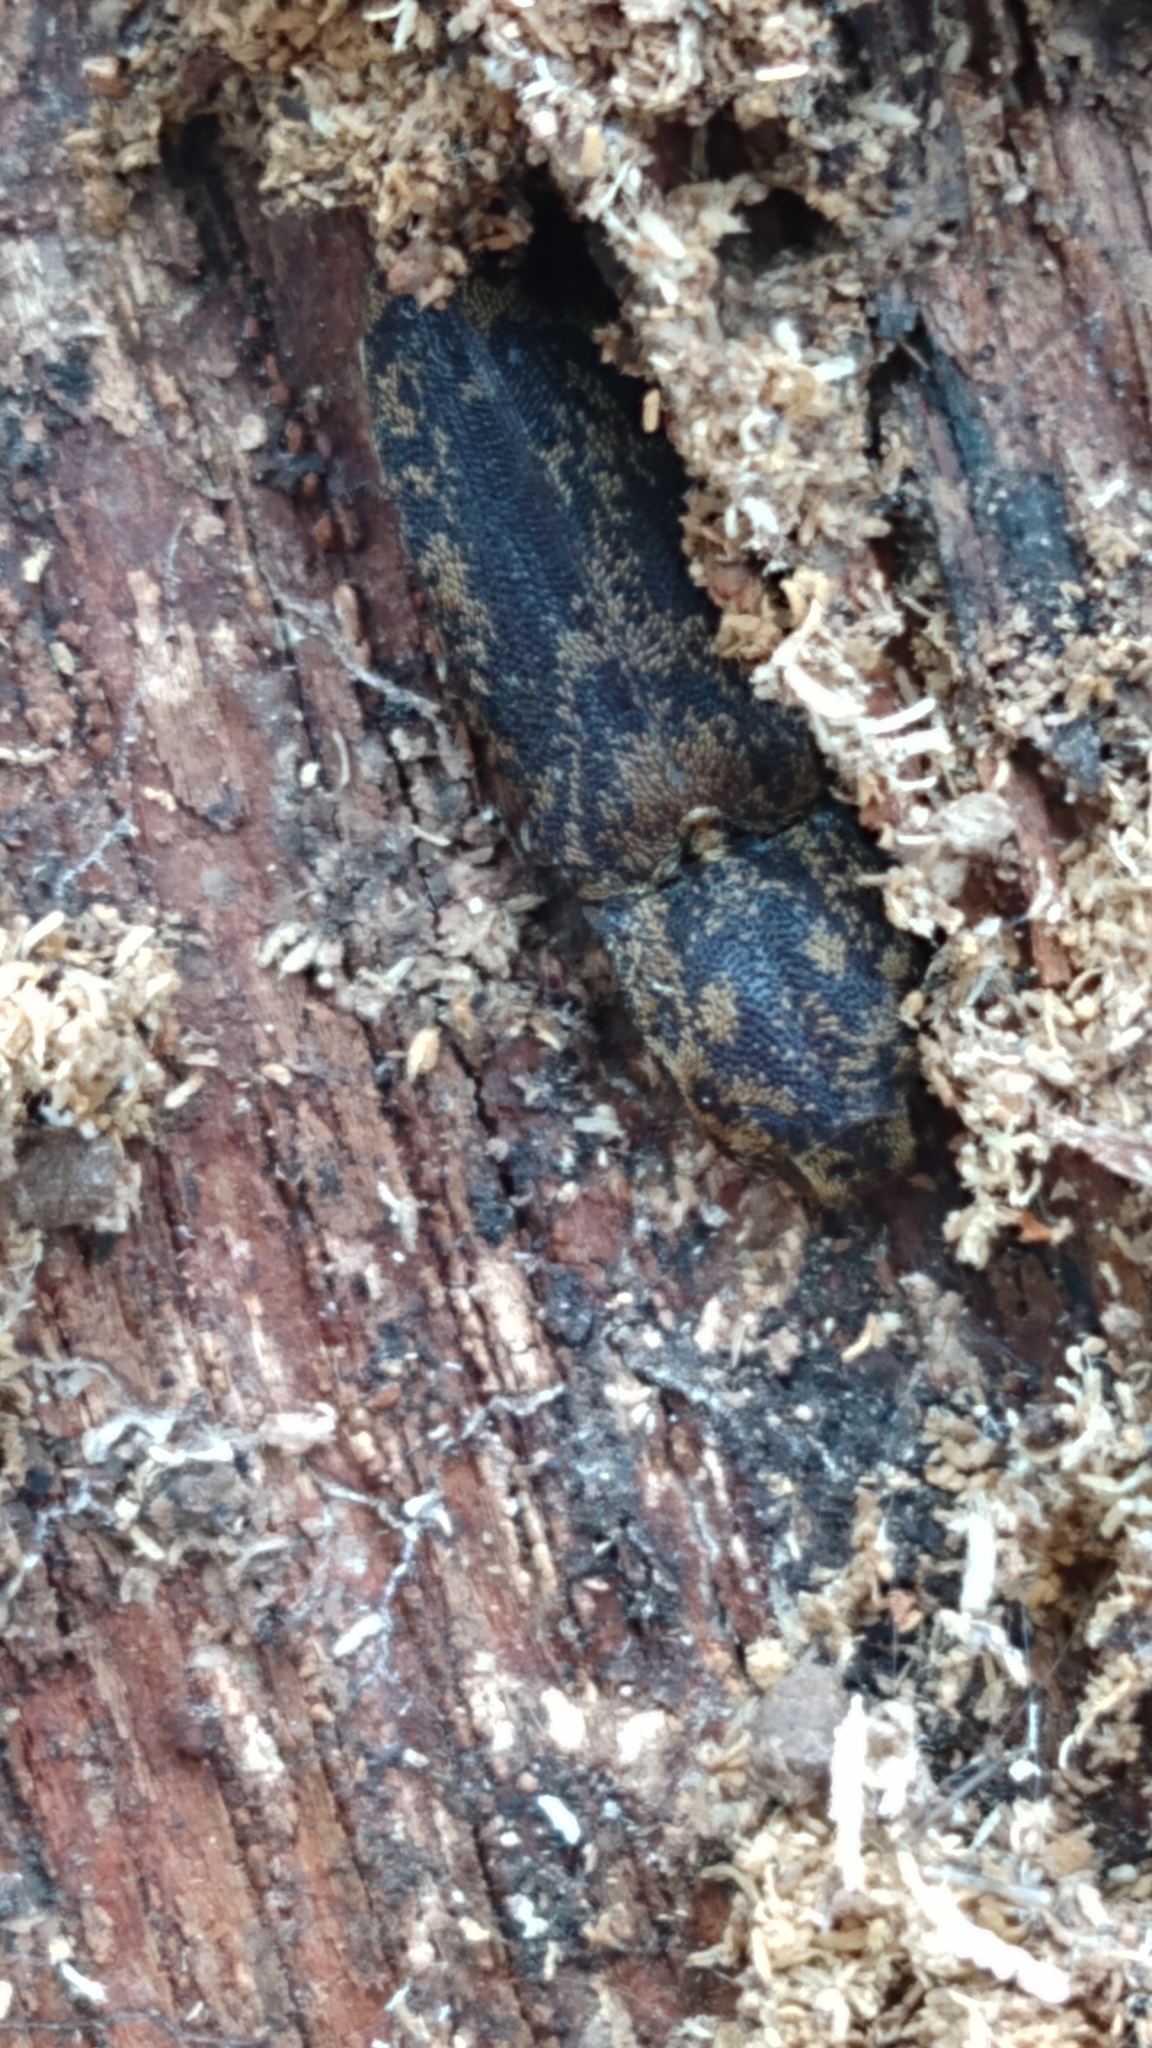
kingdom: Animalia
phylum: Arthropoda
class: Insecta
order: Coleoptera
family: Elateridae
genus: Lacon
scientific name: Lacon marmoratus
